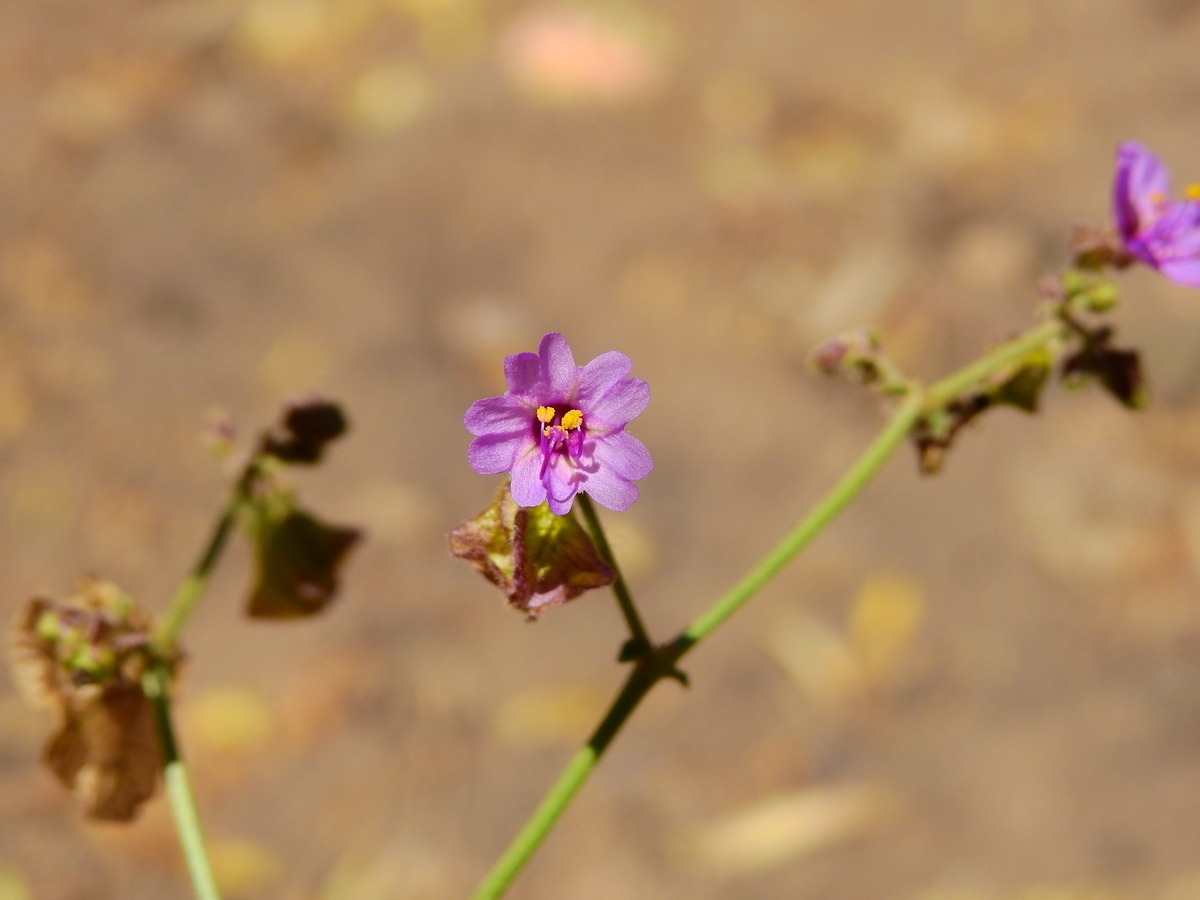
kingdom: Plantae
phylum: Tracheophyta
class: Magnoliopsida
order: Caryophyllales
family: Nyctaginaceae
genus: Mirabilis
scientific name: Mirabilis ovata
